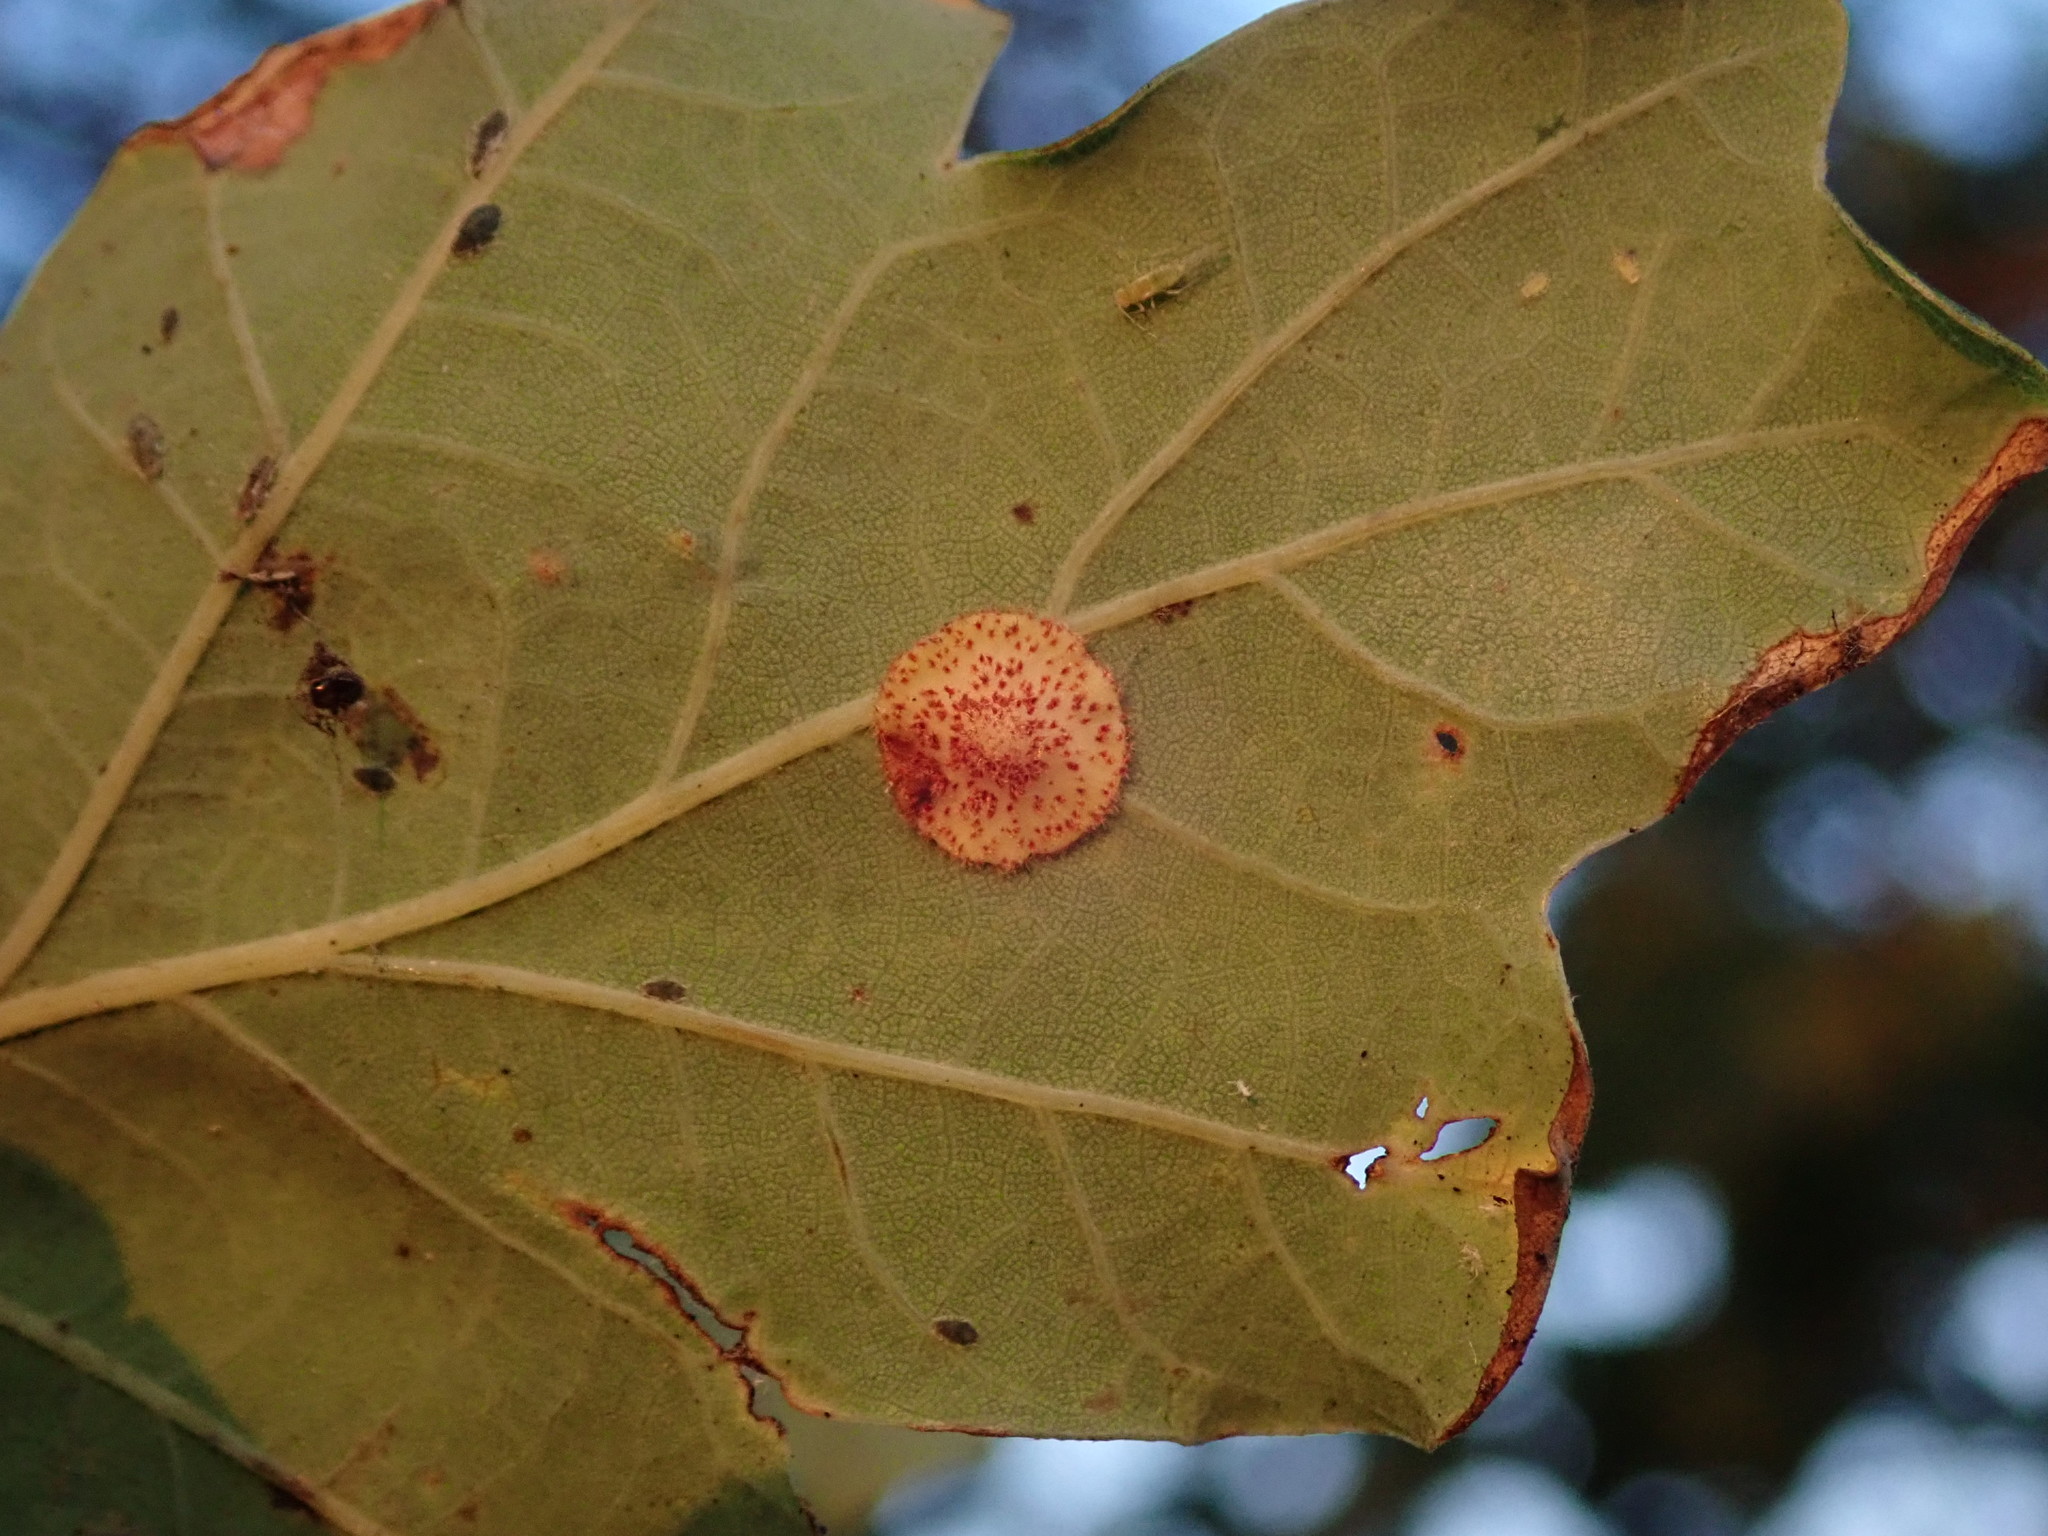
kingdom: Animalia
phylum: Arthropoda
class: Insecta
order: Hymenoptera
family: Cynipidae
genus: Neuroterus
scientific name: Neuroterus quercusbaccarum
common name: Common spangle gall
